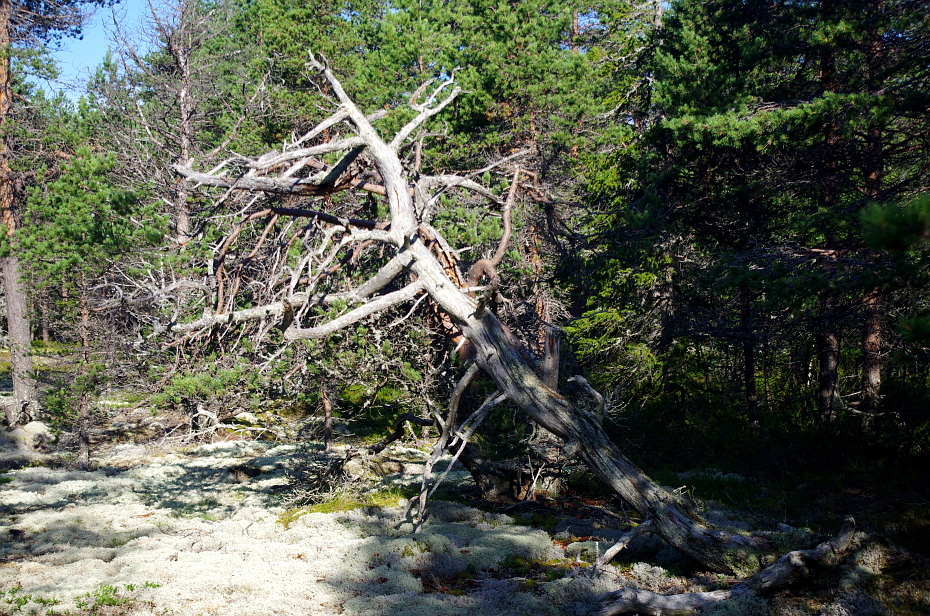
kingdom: Plantae
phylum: Tracheophyta
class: Pinopsida
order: Pinales
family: Pinaceae
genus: Pinus
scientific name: Pinus sylvestris
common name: Scots pine
